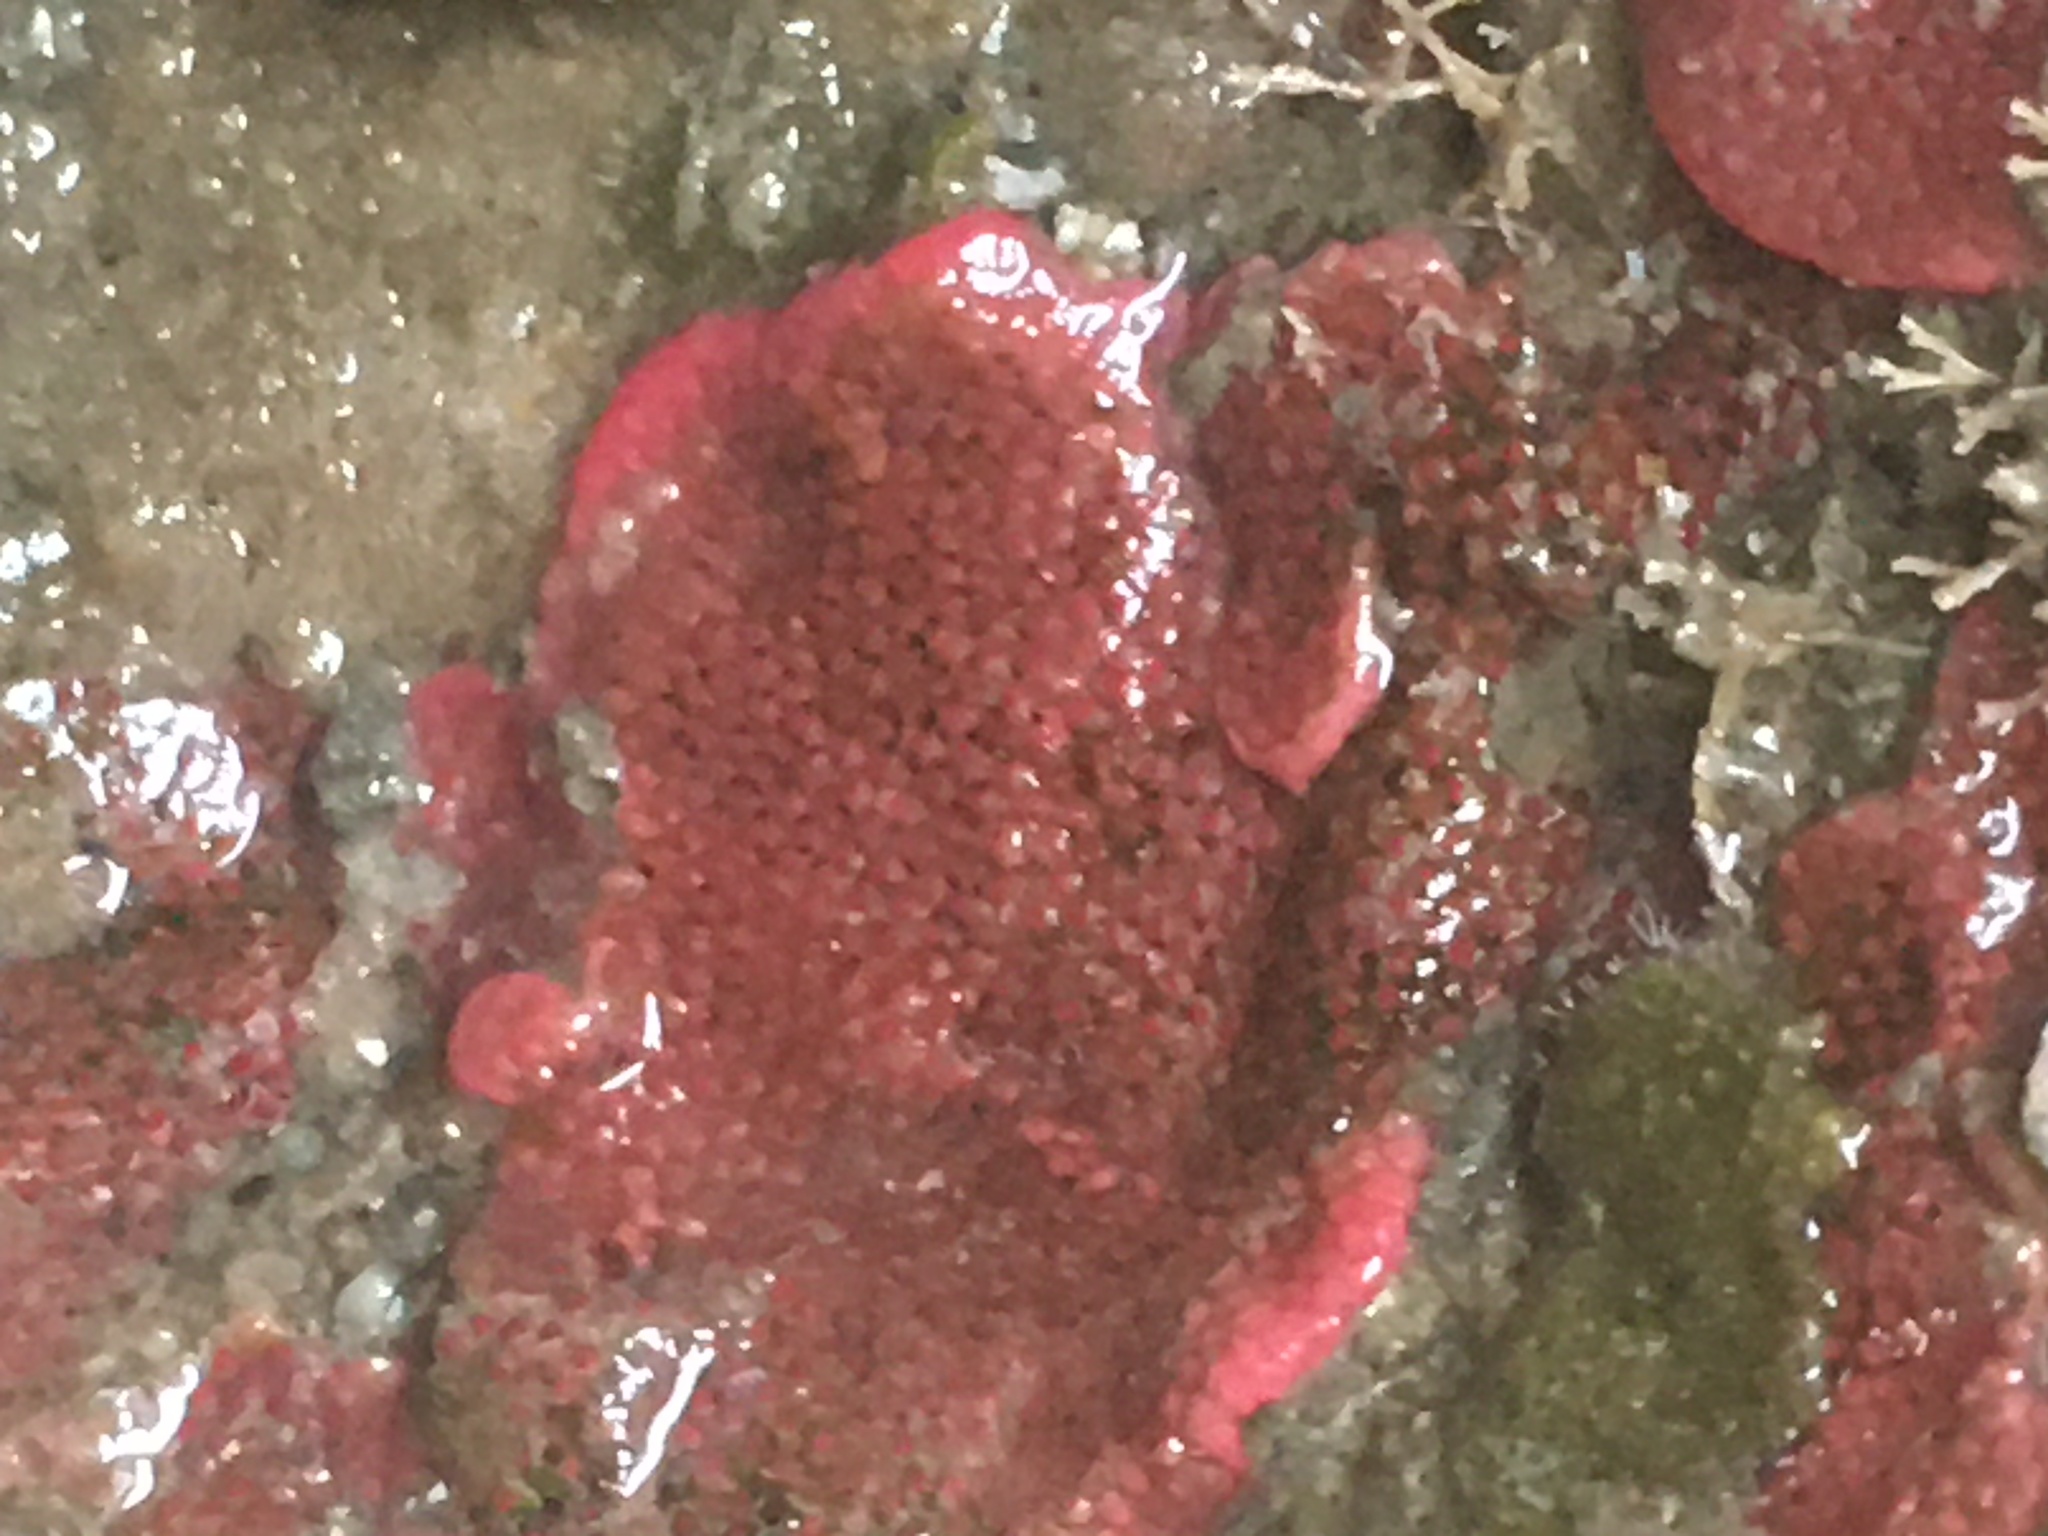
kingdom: Animalia
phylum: Bryozoa
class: Gymnolaemata
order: Cheilostomatida
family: Eurystomellidae
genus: Integripelta
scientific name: Integripelta bilabiata
